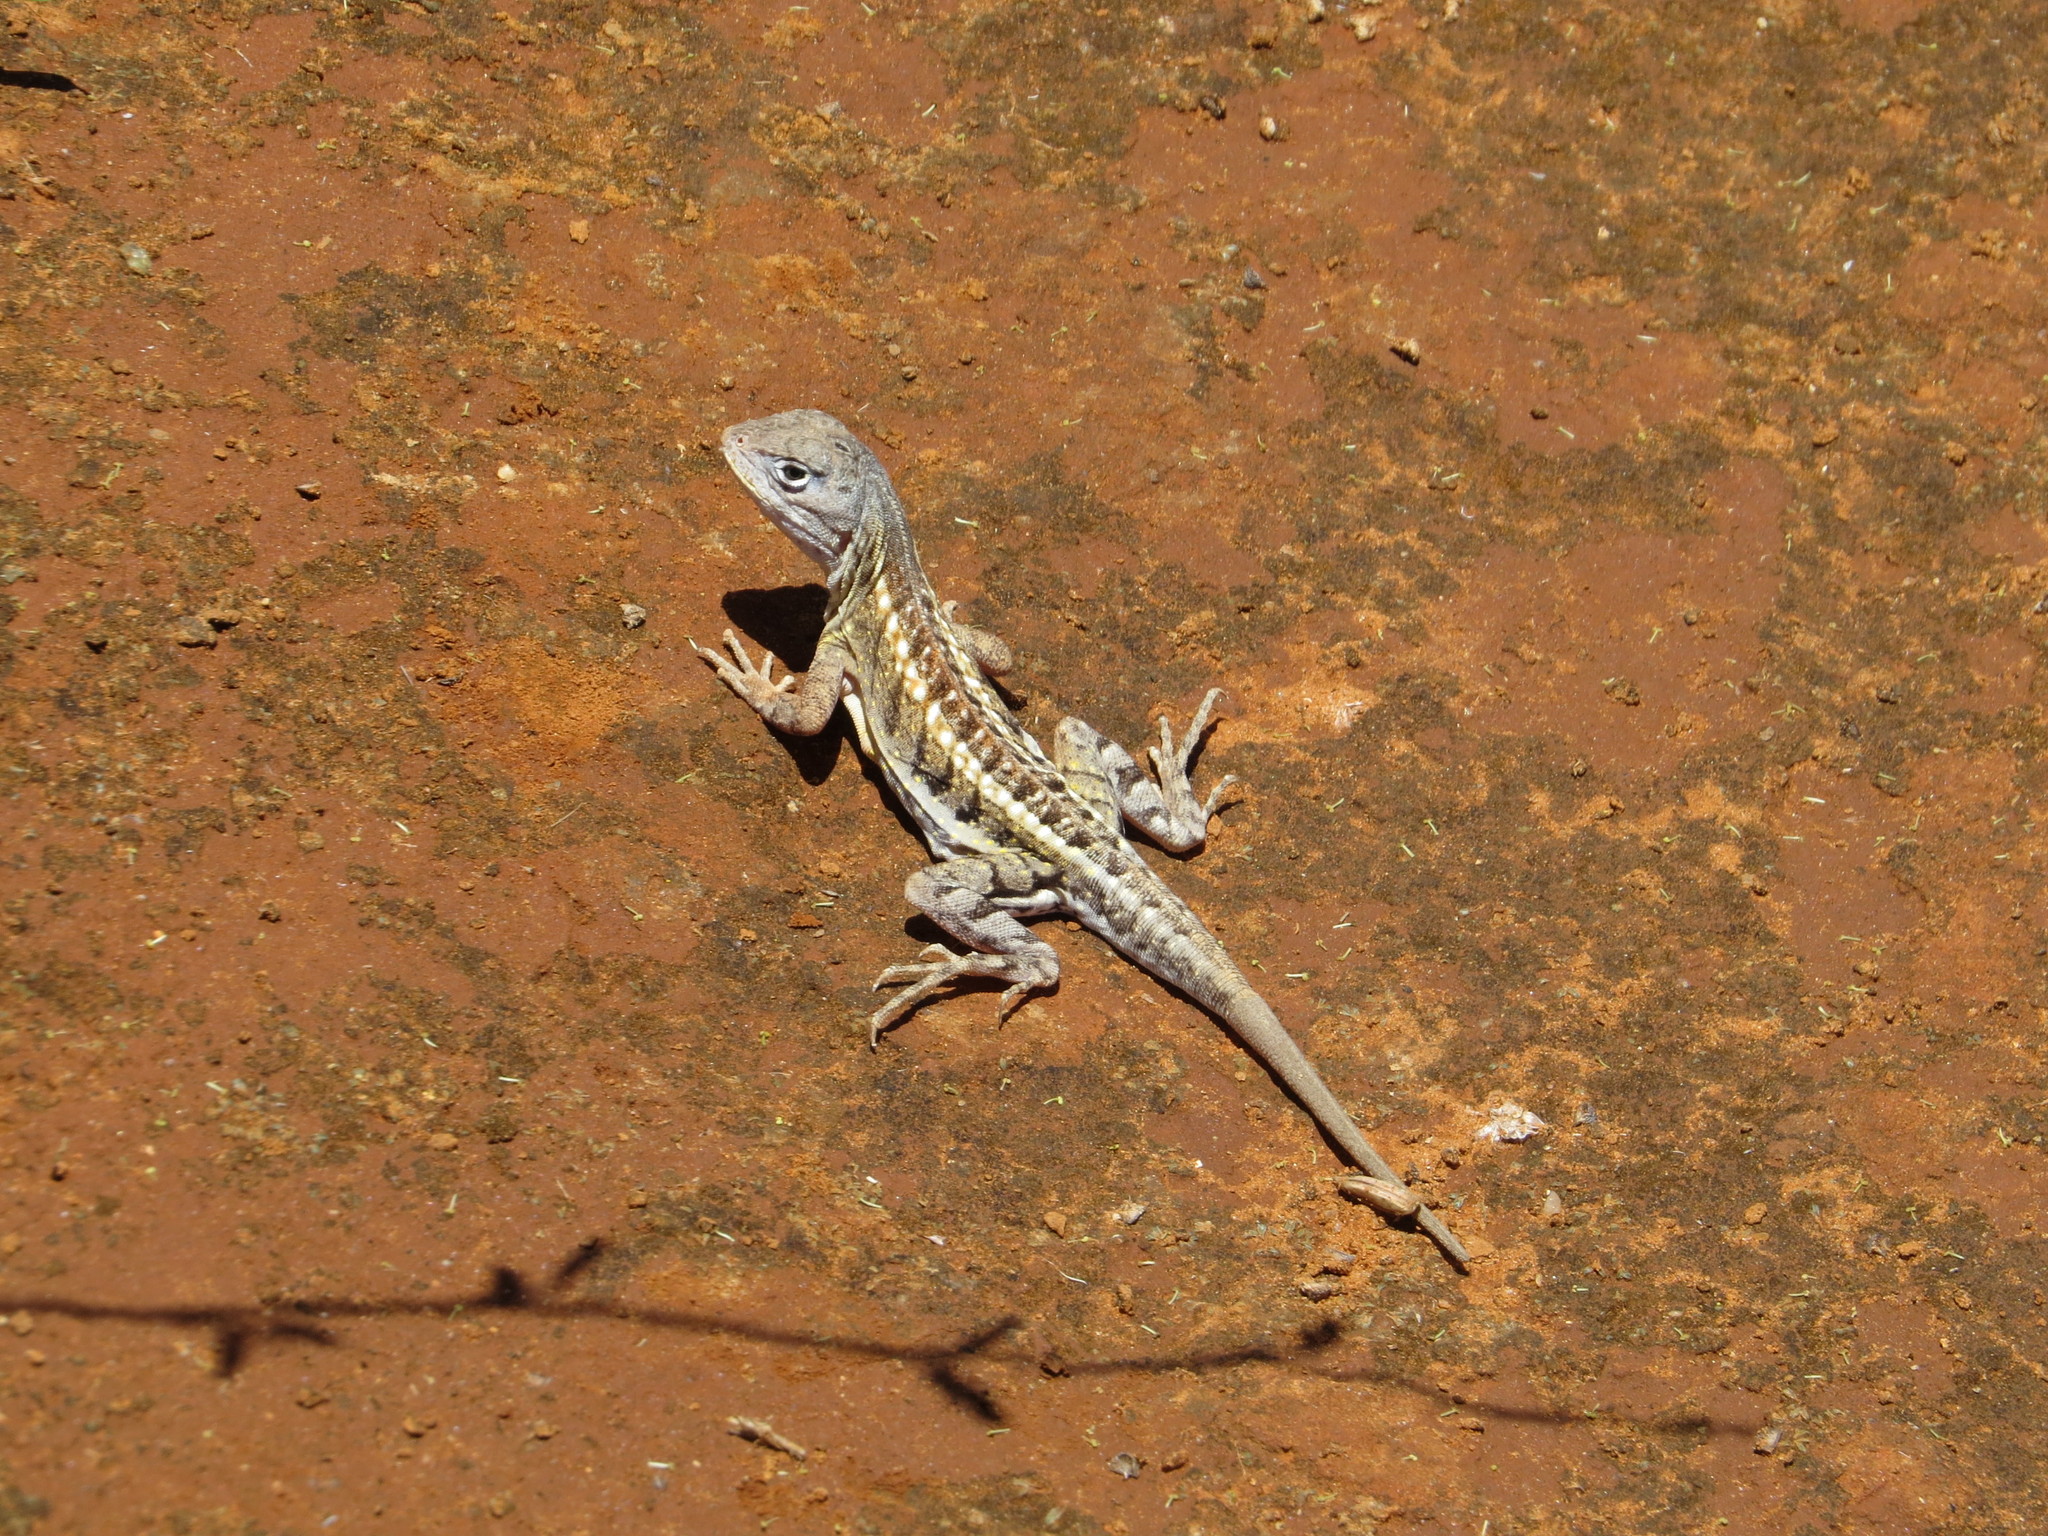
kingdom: Animalia
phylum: Chordata
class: Squamata
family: Opluridae
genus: Chalarodon
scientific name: Chalarodon madagascariensis
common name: Madagascar iguana
